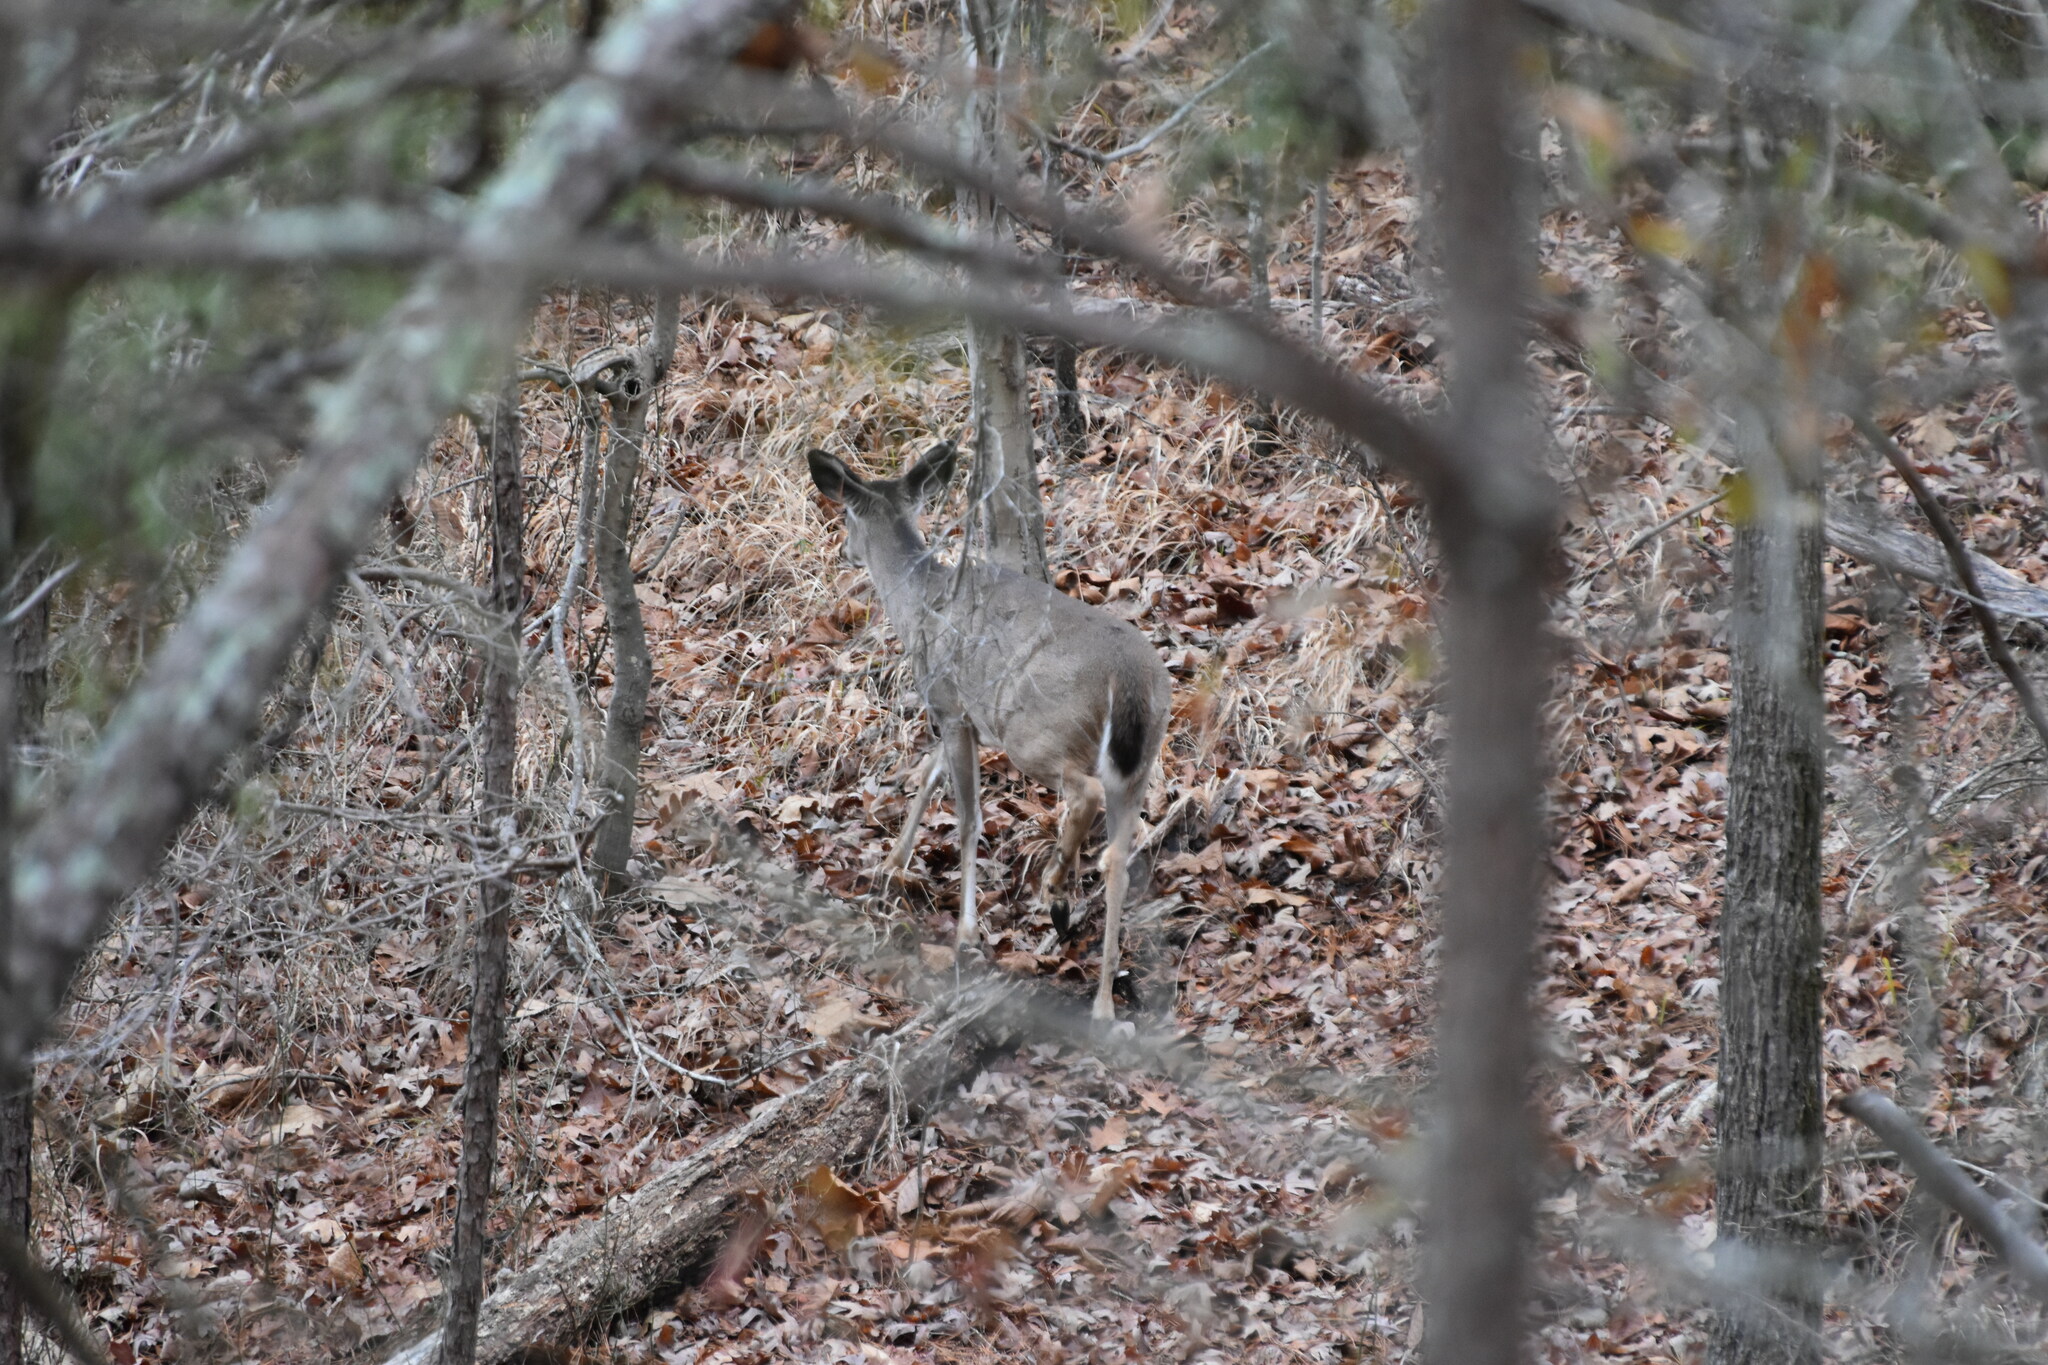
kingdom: Animalia
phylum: Chordata
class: Mammalia
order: Artiodactyla
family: Cervidae
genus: Odocoileus
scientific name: Odocoileus virginianus
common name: White-tailed deer
